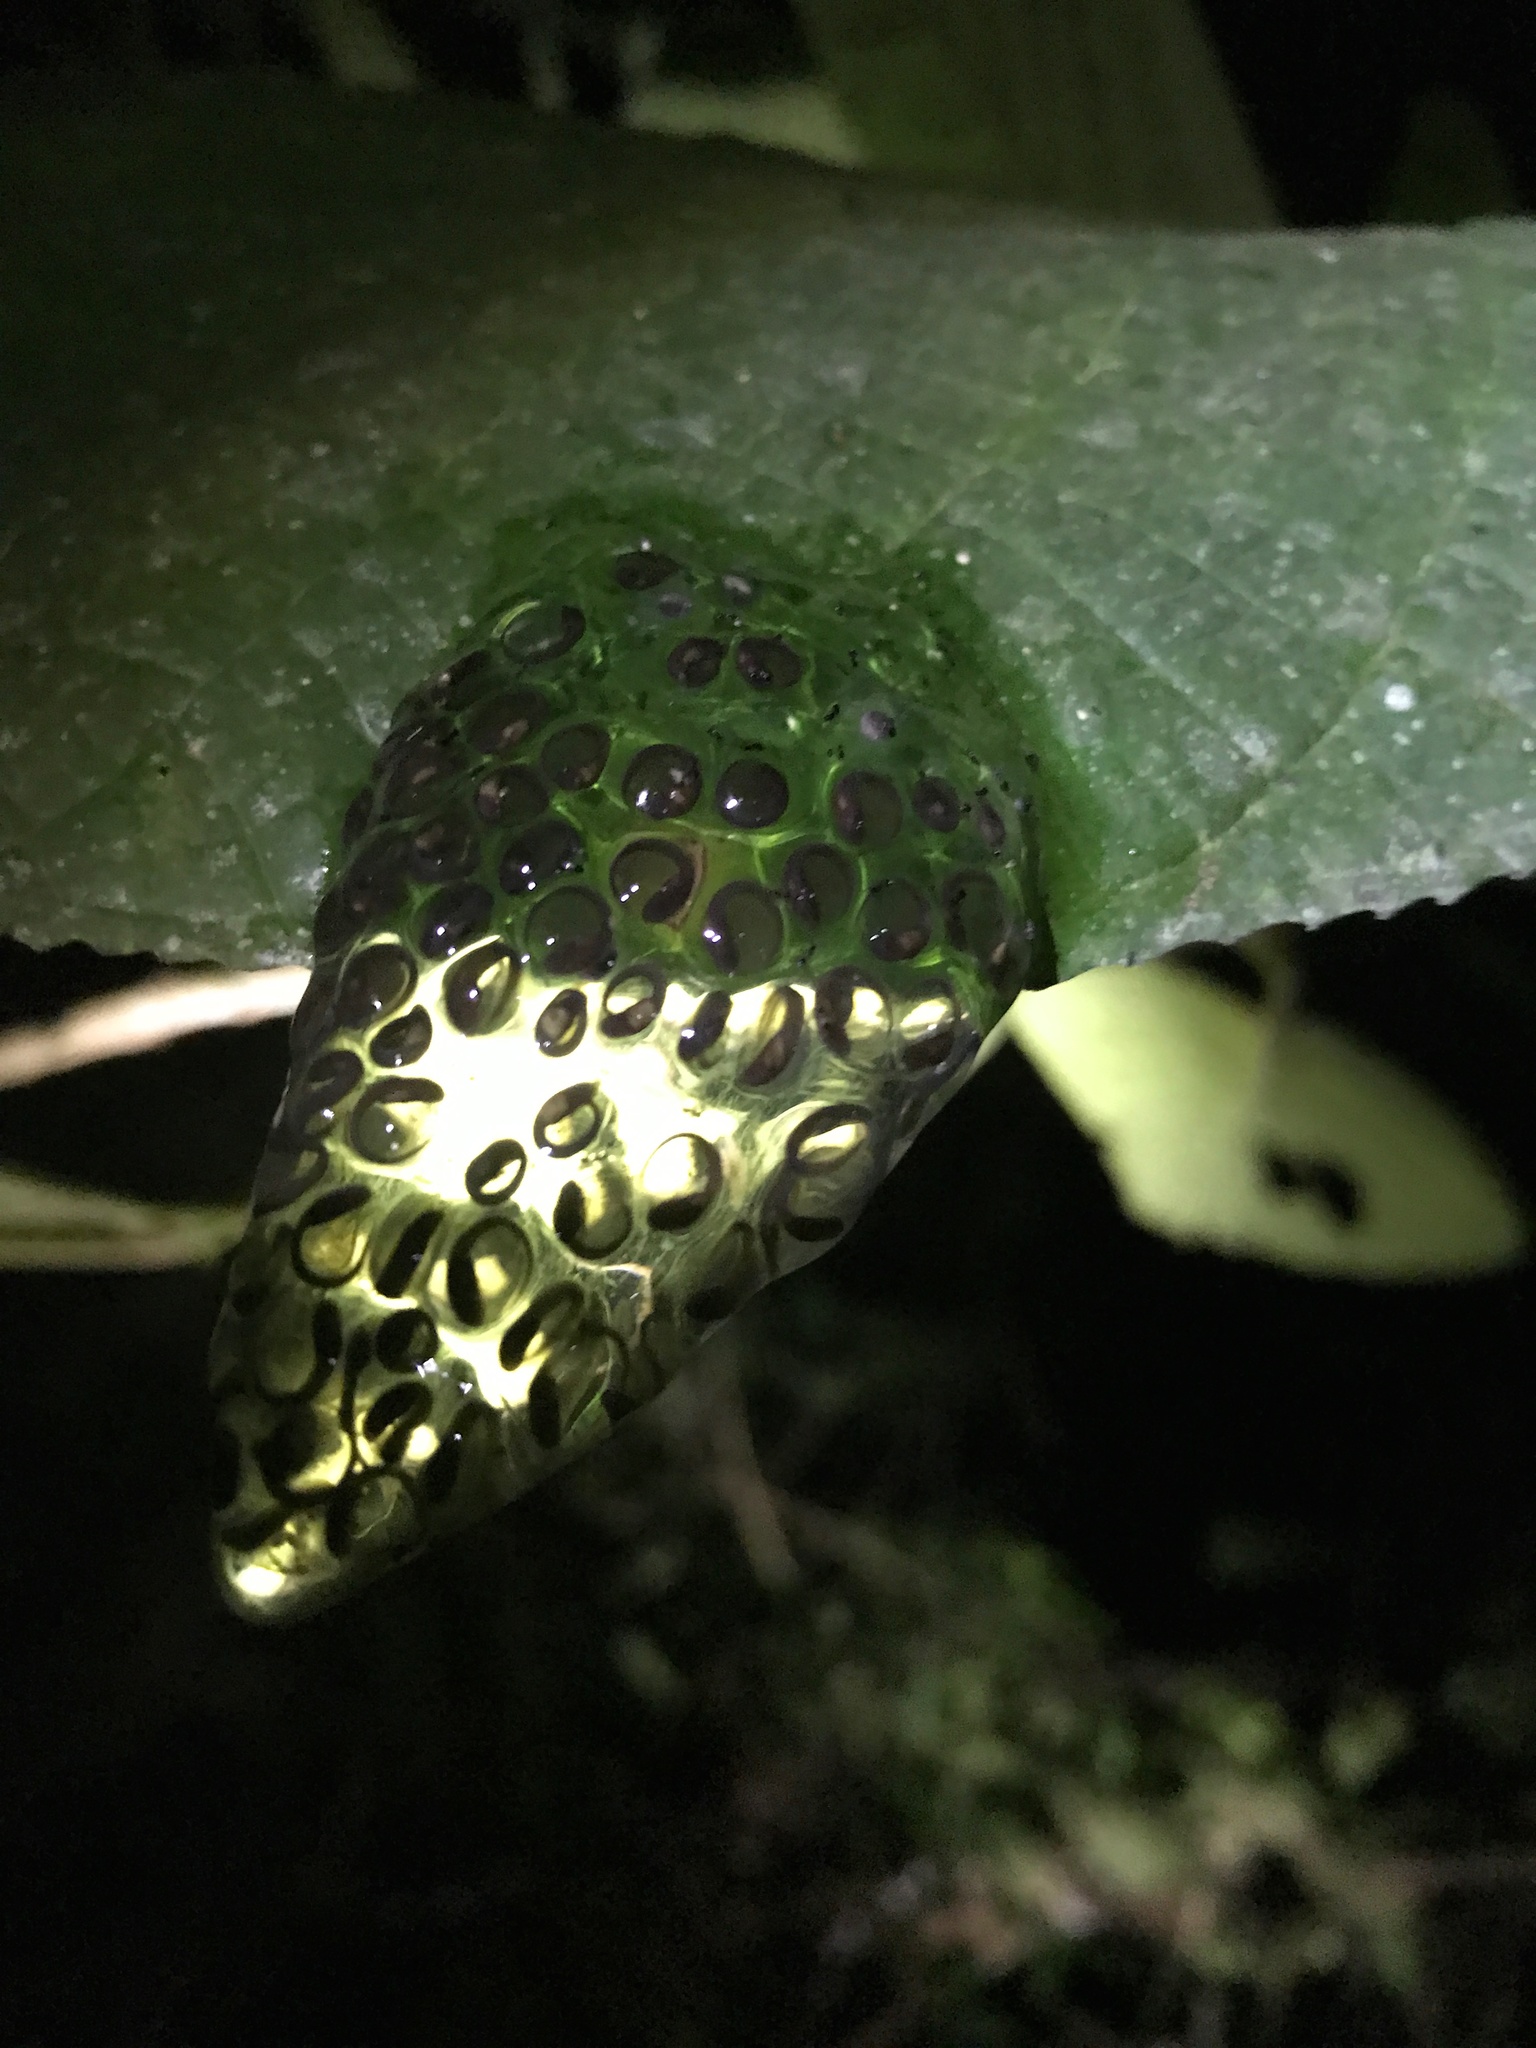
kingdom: Animalia
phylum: Chordata
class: Amphibia
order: Anura
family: Centrolenidae
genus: Cochranella
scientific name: Cochranella granulosa
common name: Grainy cochran frog
